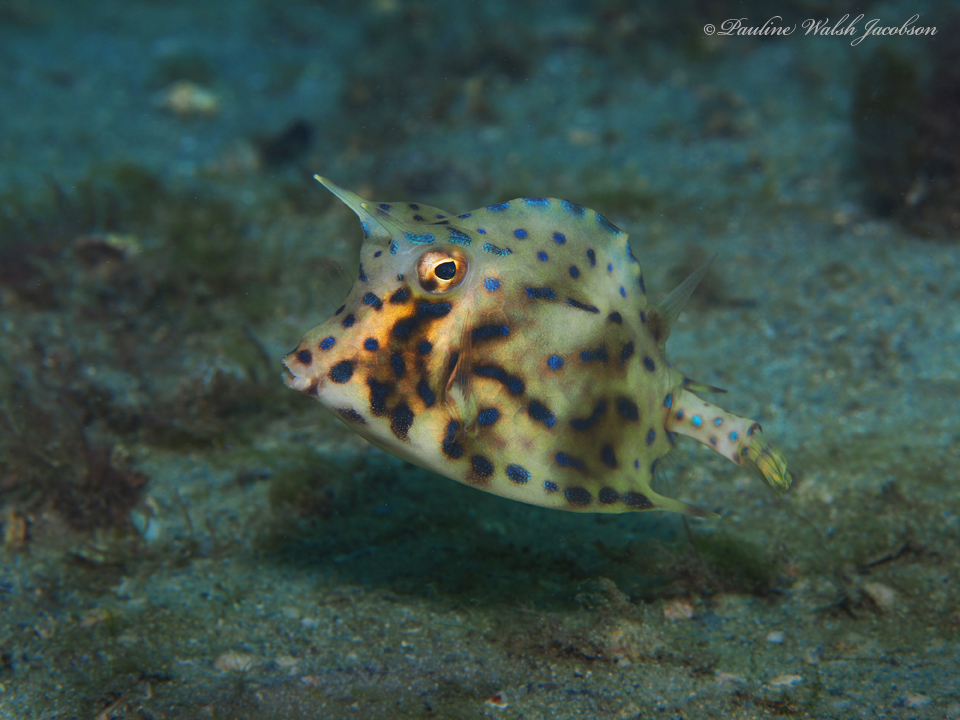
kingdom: Animalia
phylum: Chordata
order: Tetraodontiformes
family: Ostraciidae
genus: Acanthostracion
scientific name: Acanthostracion quadricornis
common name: Scrawled cowfish
